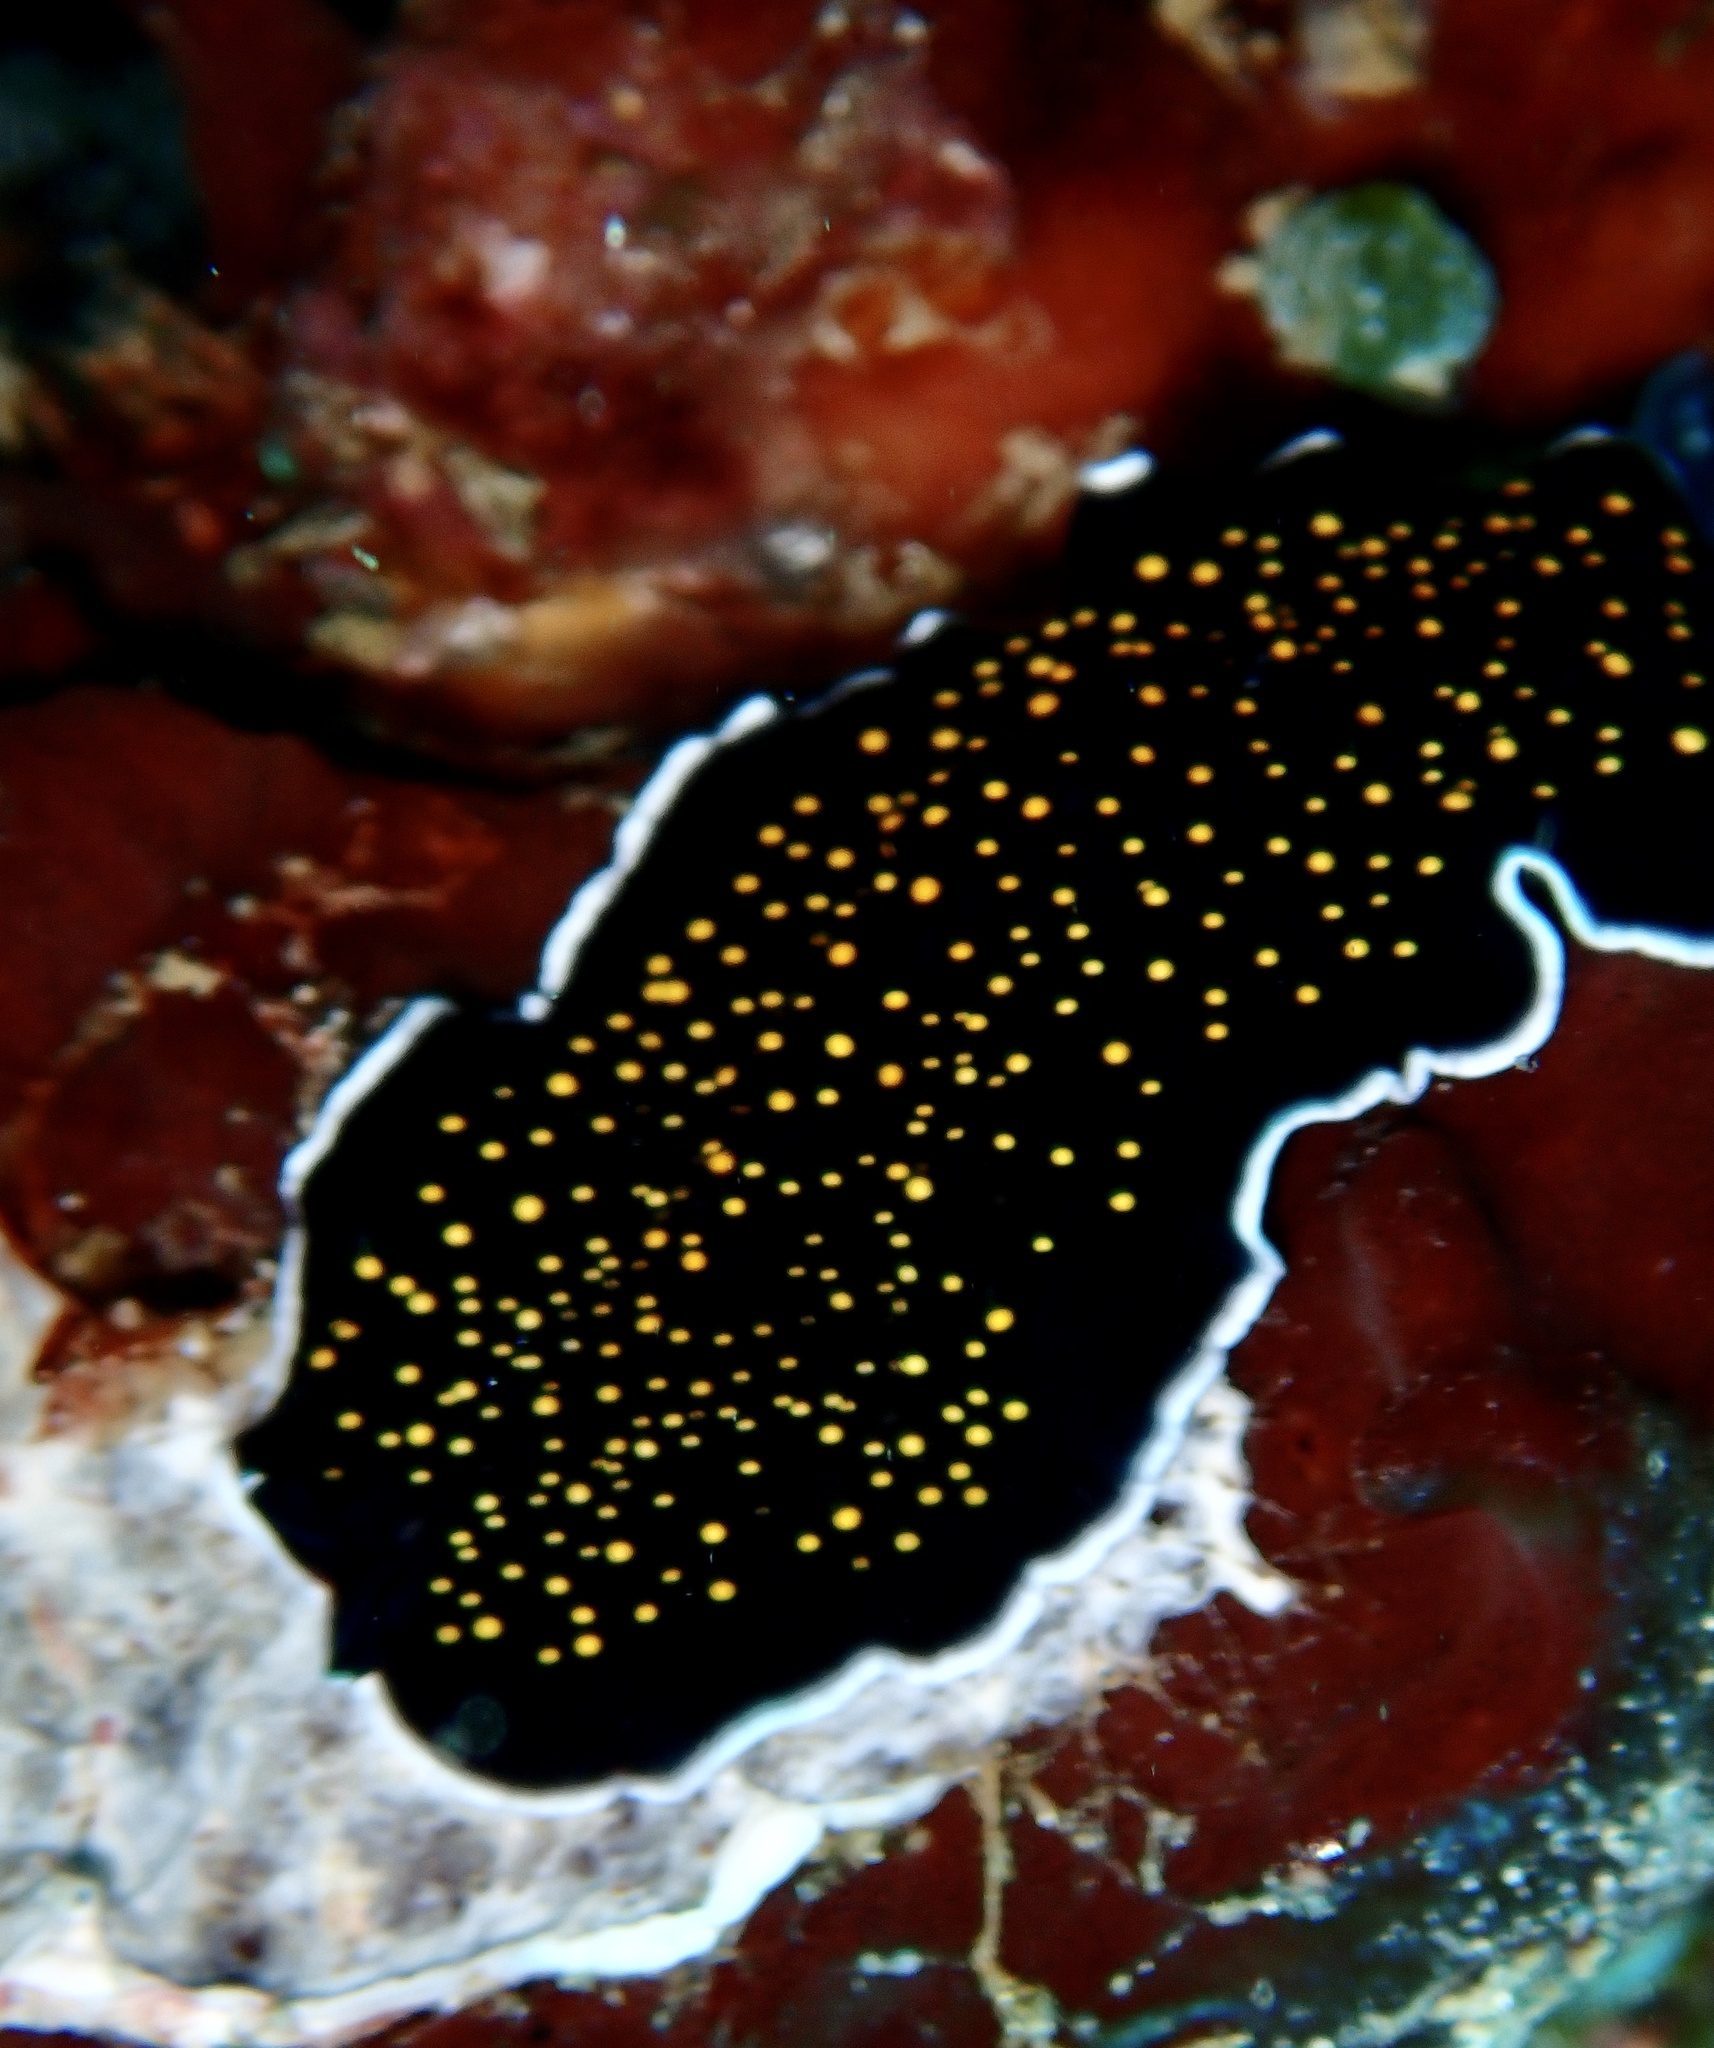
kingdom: Animalia
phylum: Platyhelminthes
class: Turbellaria
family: Pseudocerotidae
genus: Thysanozoon
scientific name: Thysanozoon nigropapillosum
